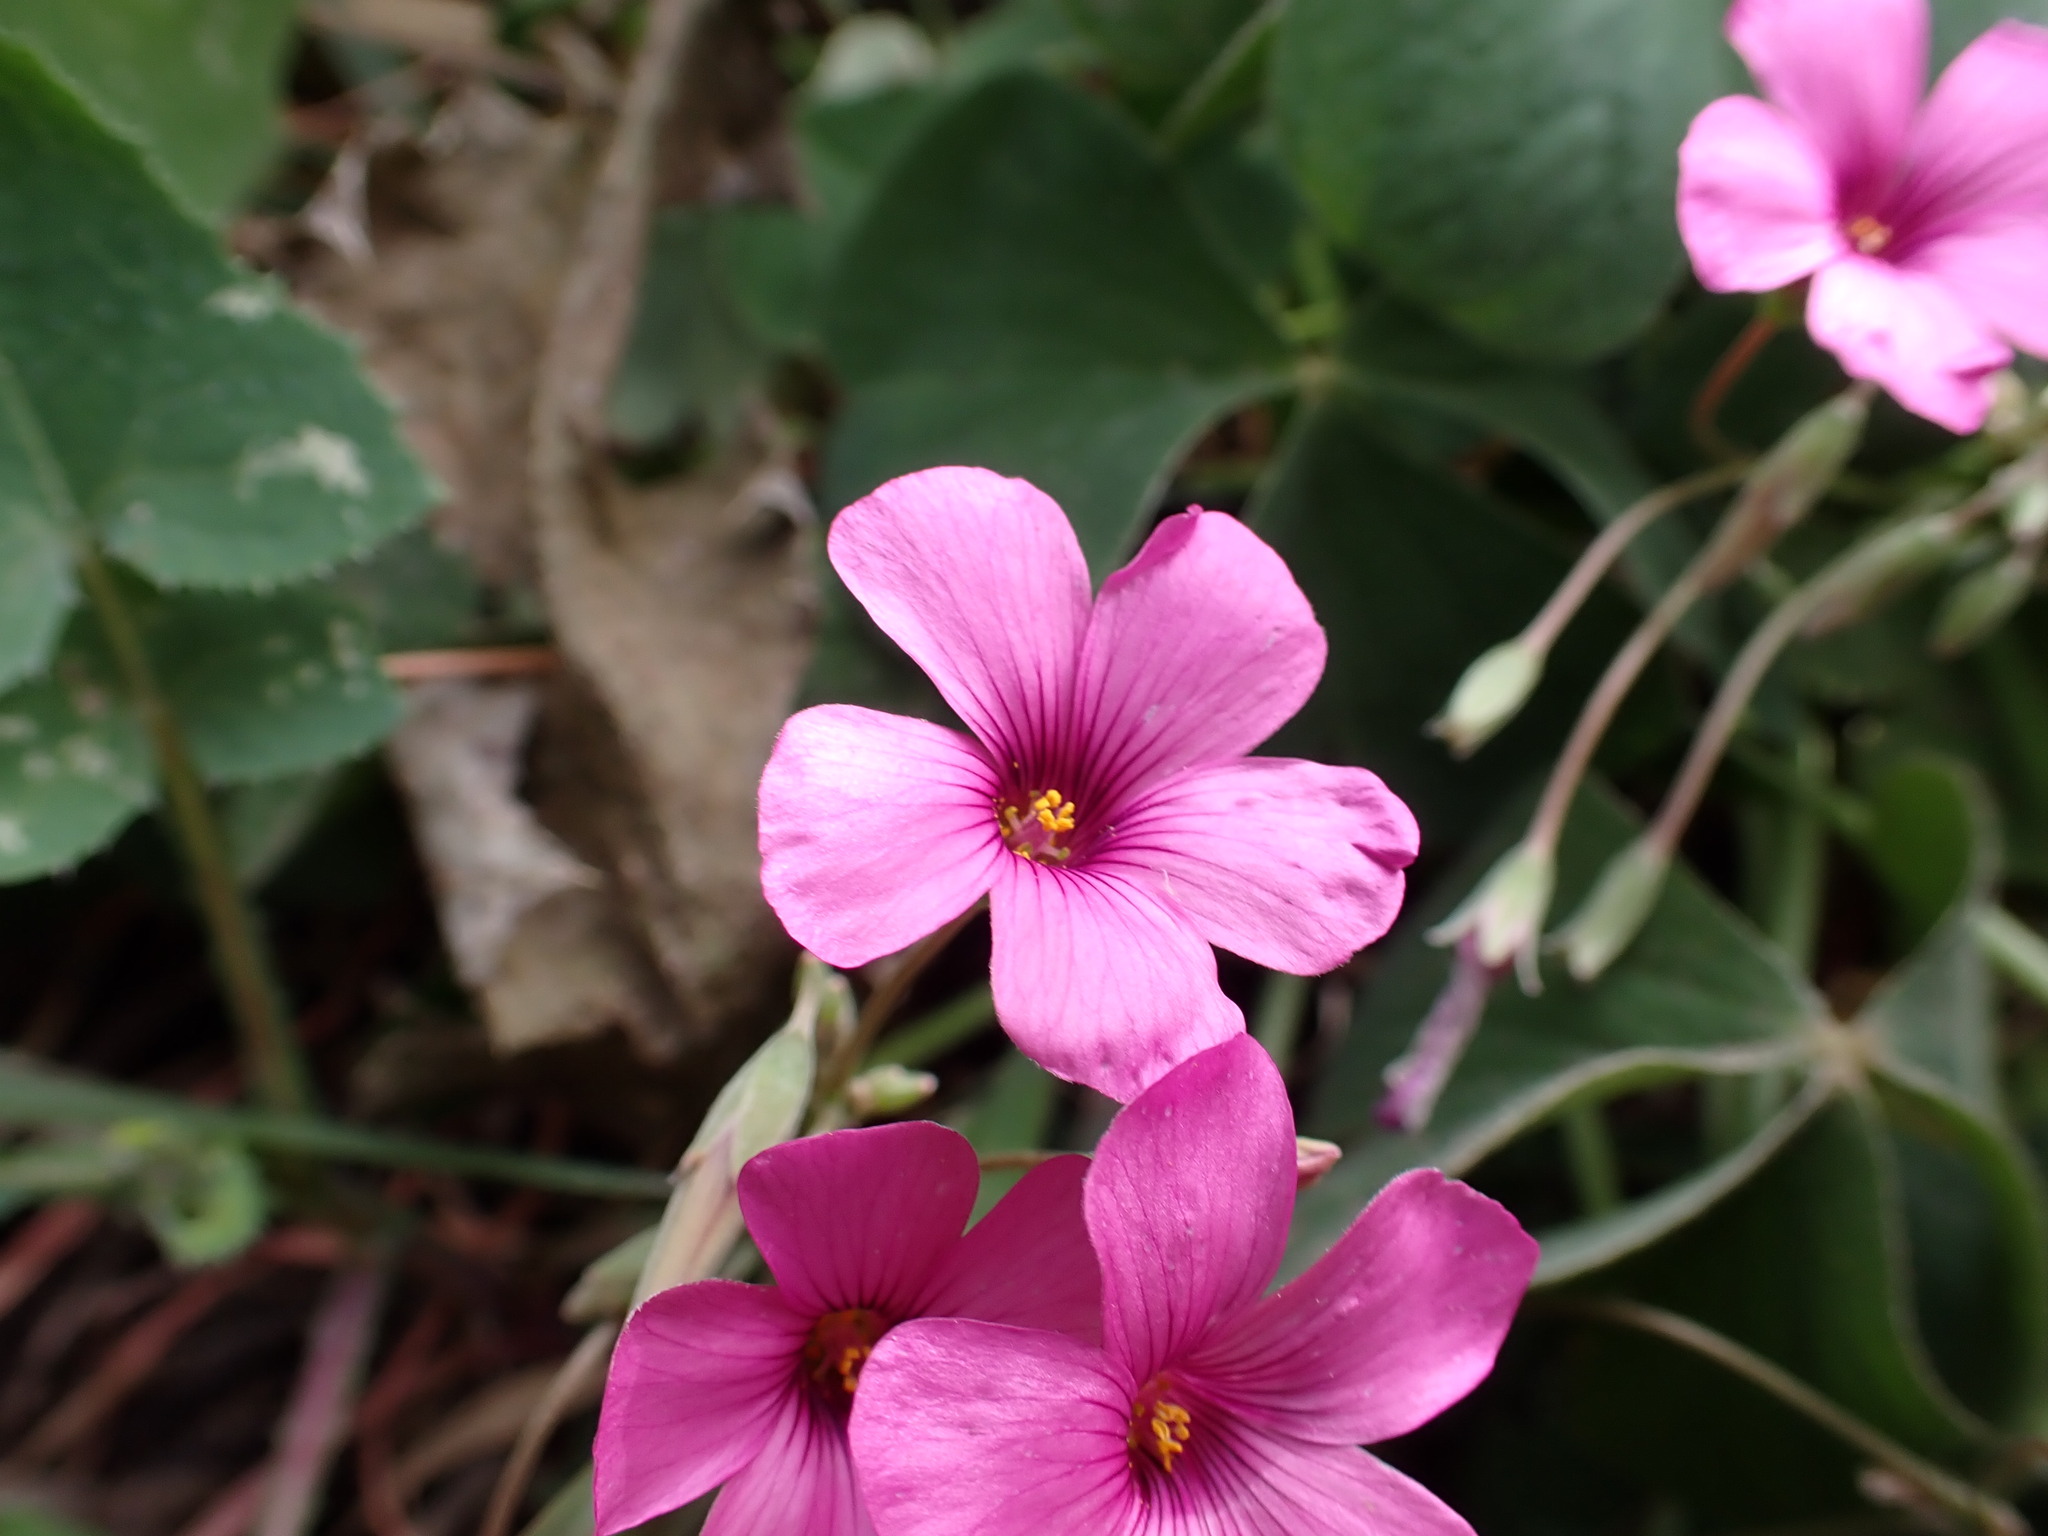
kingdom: Plantae
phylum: Tracheophyta
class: Magnoliopsida
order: Oxalidales
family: Oxalidaceae
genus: Oxalis
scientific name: Oxalis articulata
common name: Pink-sorrel
